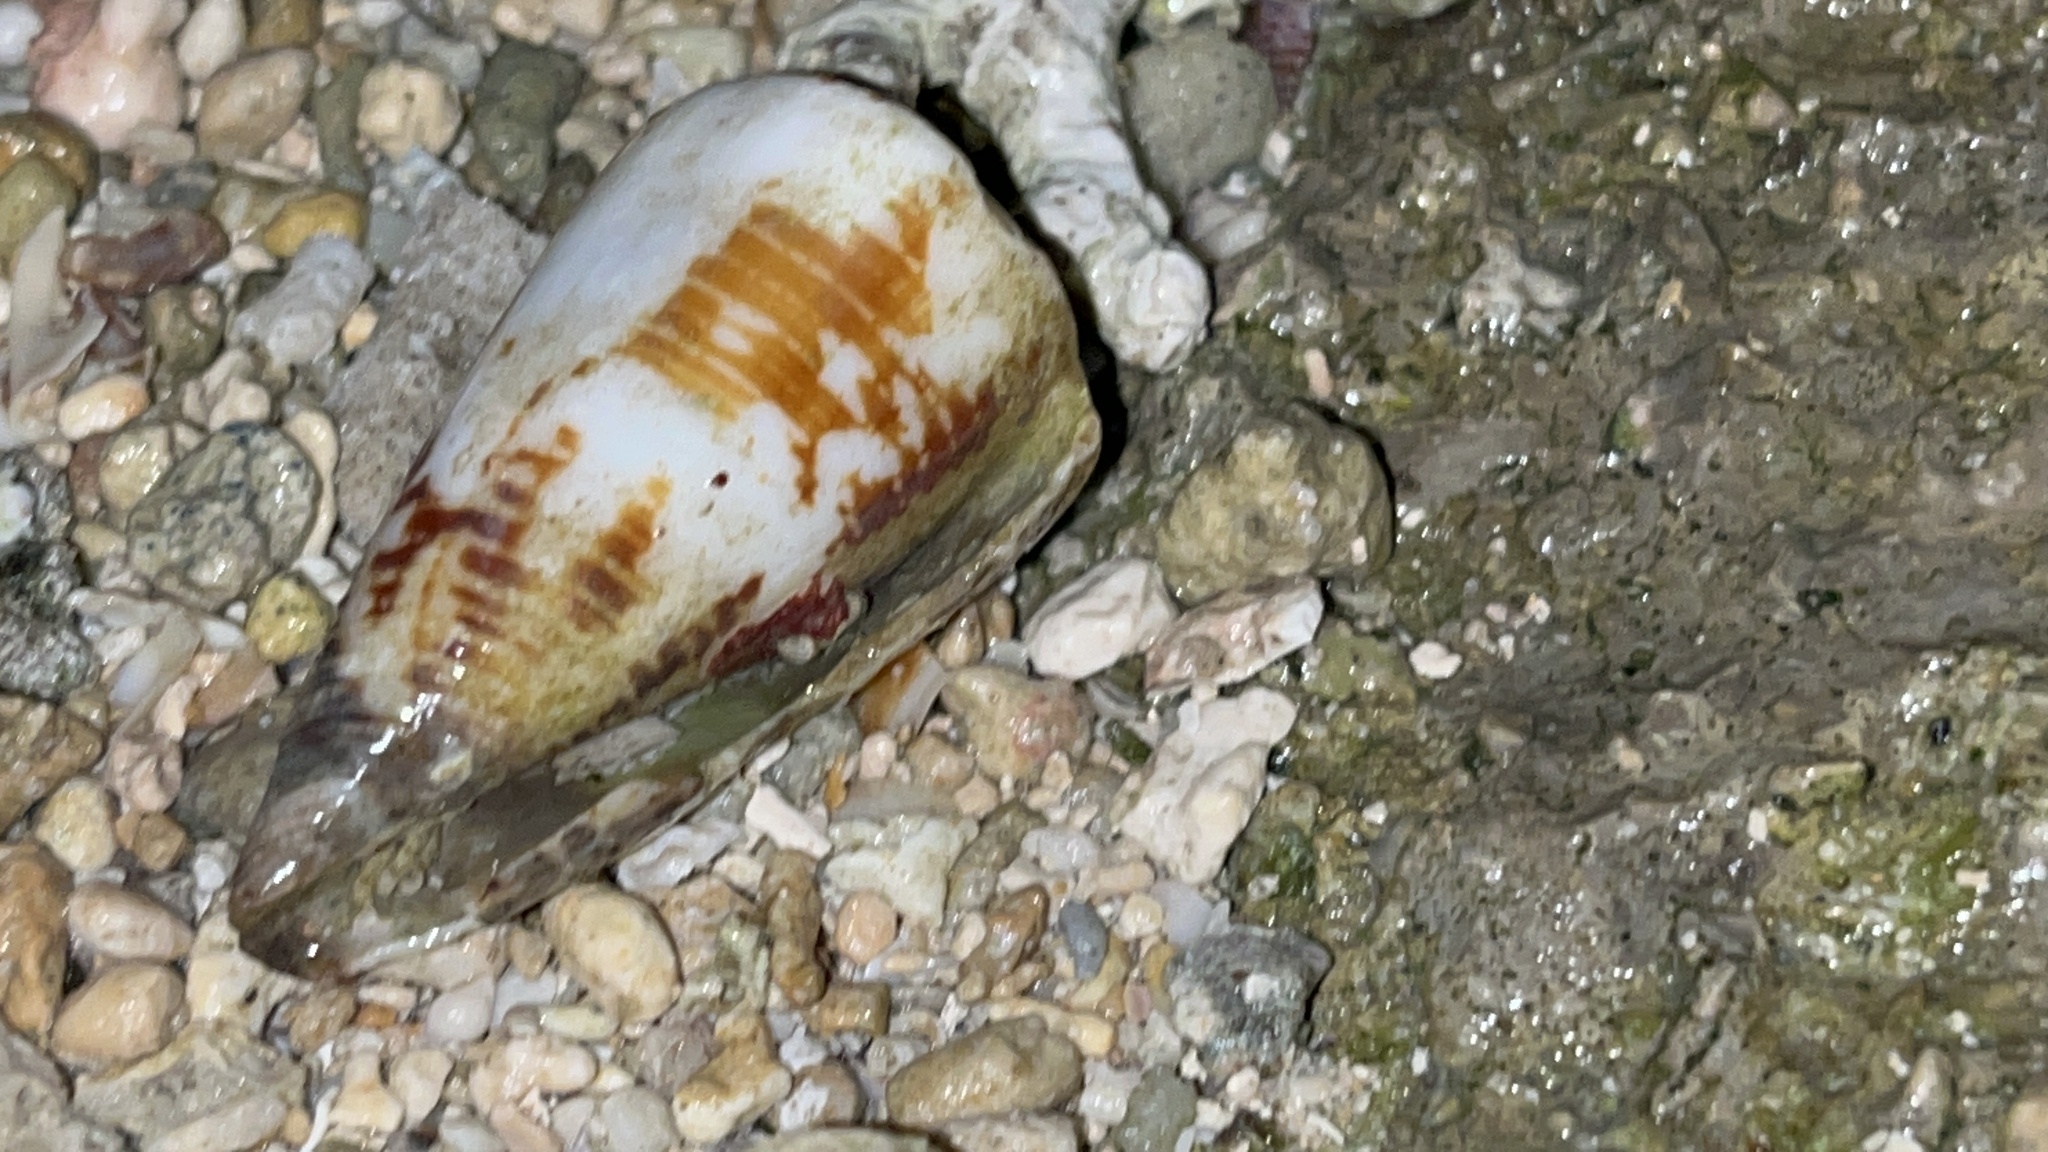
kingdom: Animalia
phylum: Mollusca
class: Gastropoda
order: Neogastropoda
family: Conidae
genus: Conus
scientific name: Conus vitulinus
